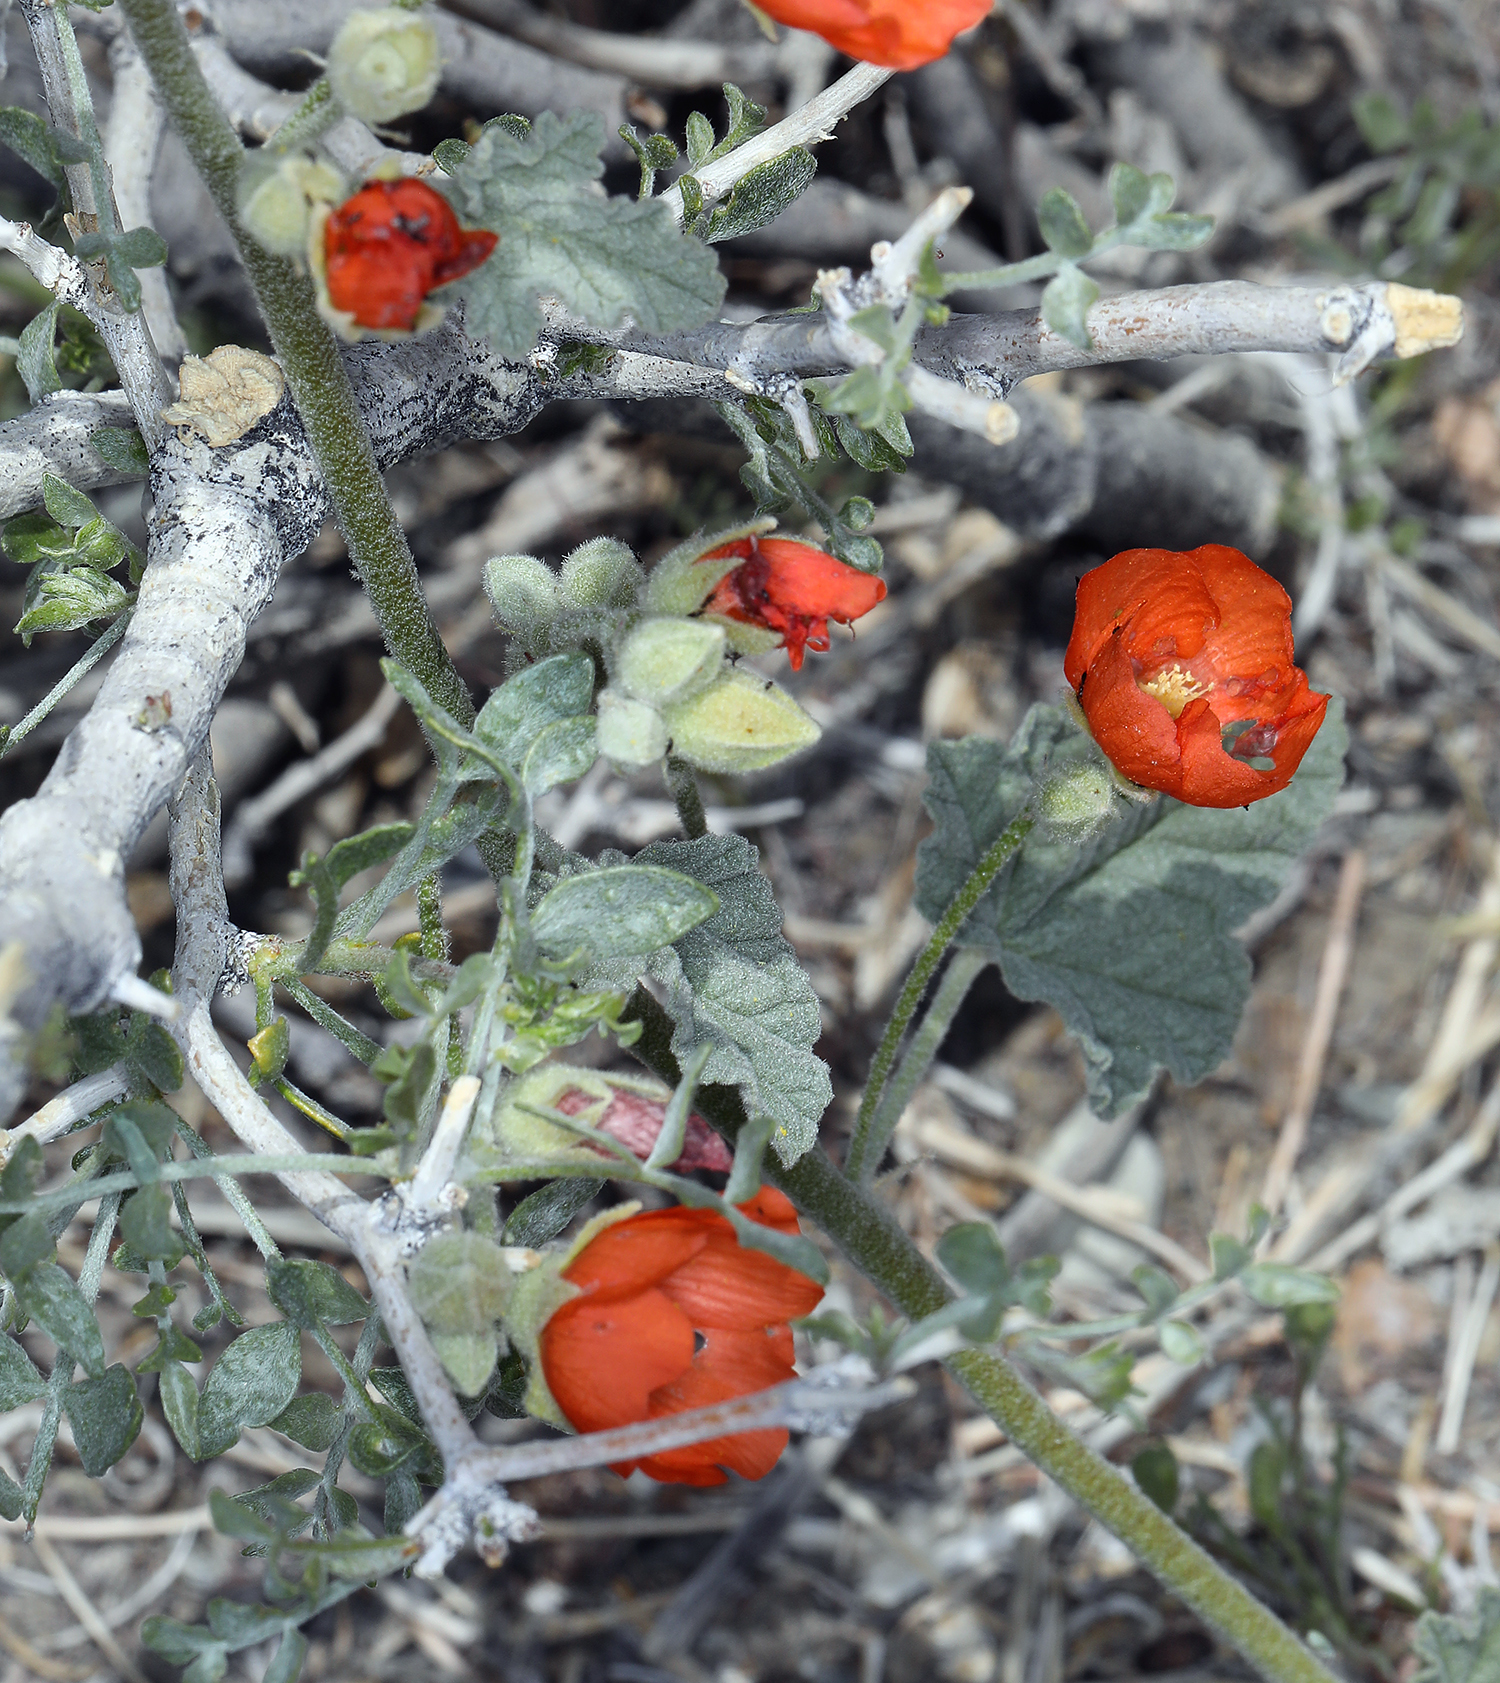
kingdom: Plantae
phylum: Tracheophyta
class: Magnoliopsida
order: Malvales
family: Malvaceae
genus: Sphaeralcea
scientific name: Sphaeralcea ambigua
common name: Apricot globe-mallow
